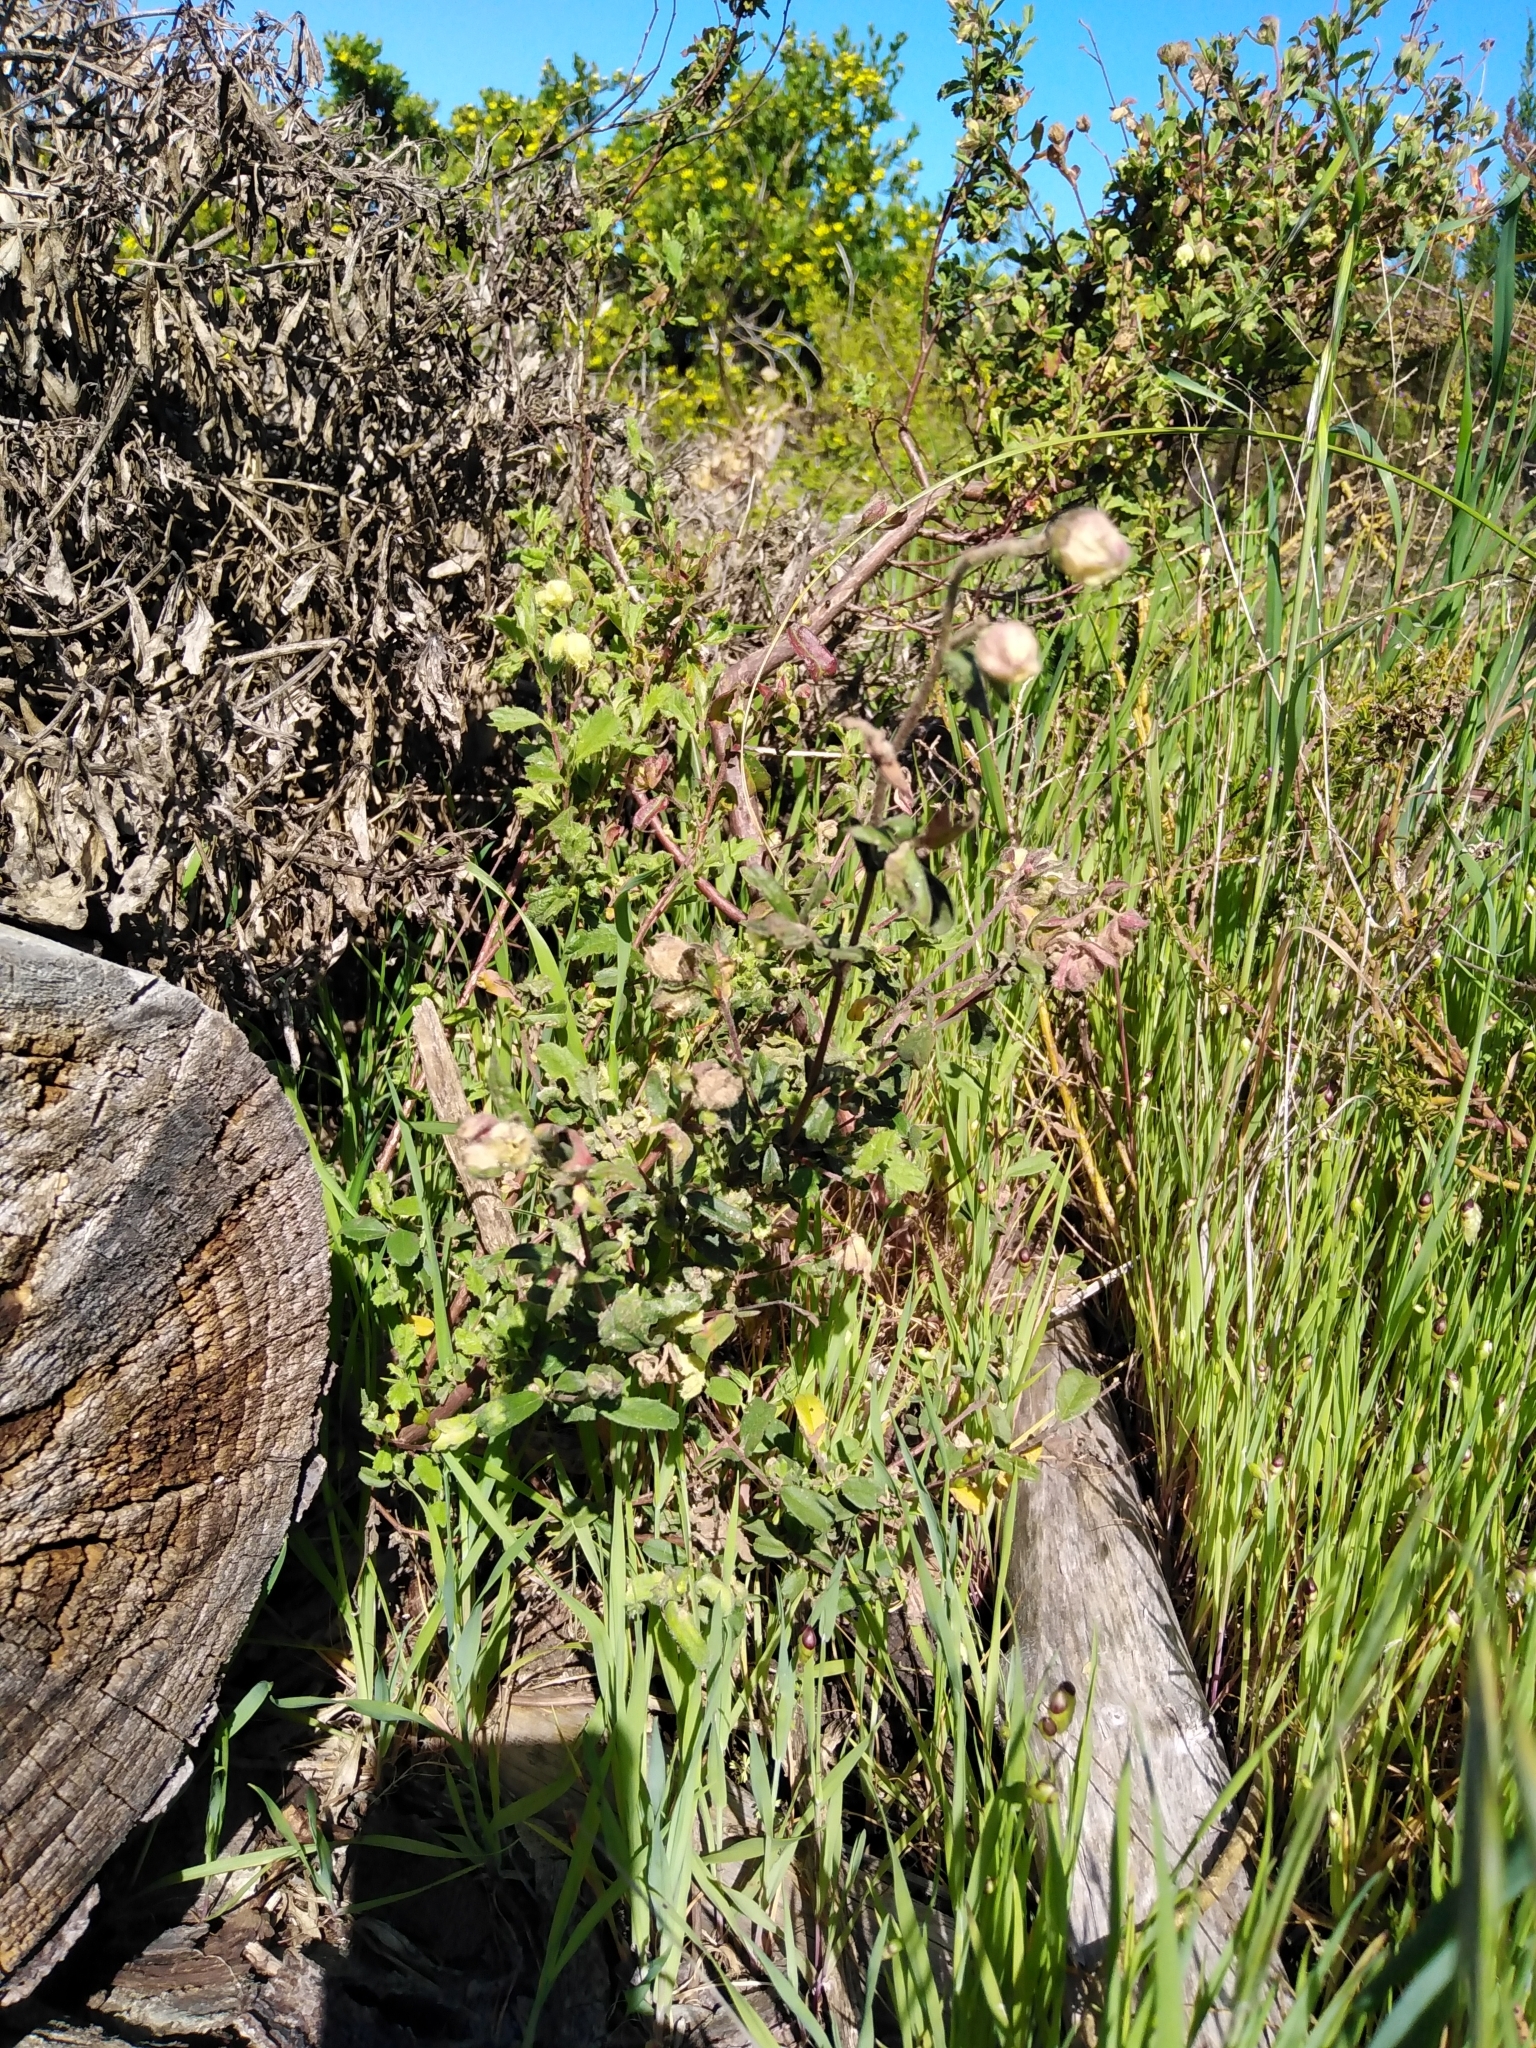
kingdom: Plantae
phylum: Tracheophyta
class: Magnoliopsida
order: Malvales
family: Malvaceae
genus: Hermannia
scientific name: Hermannia hyssopifolia
